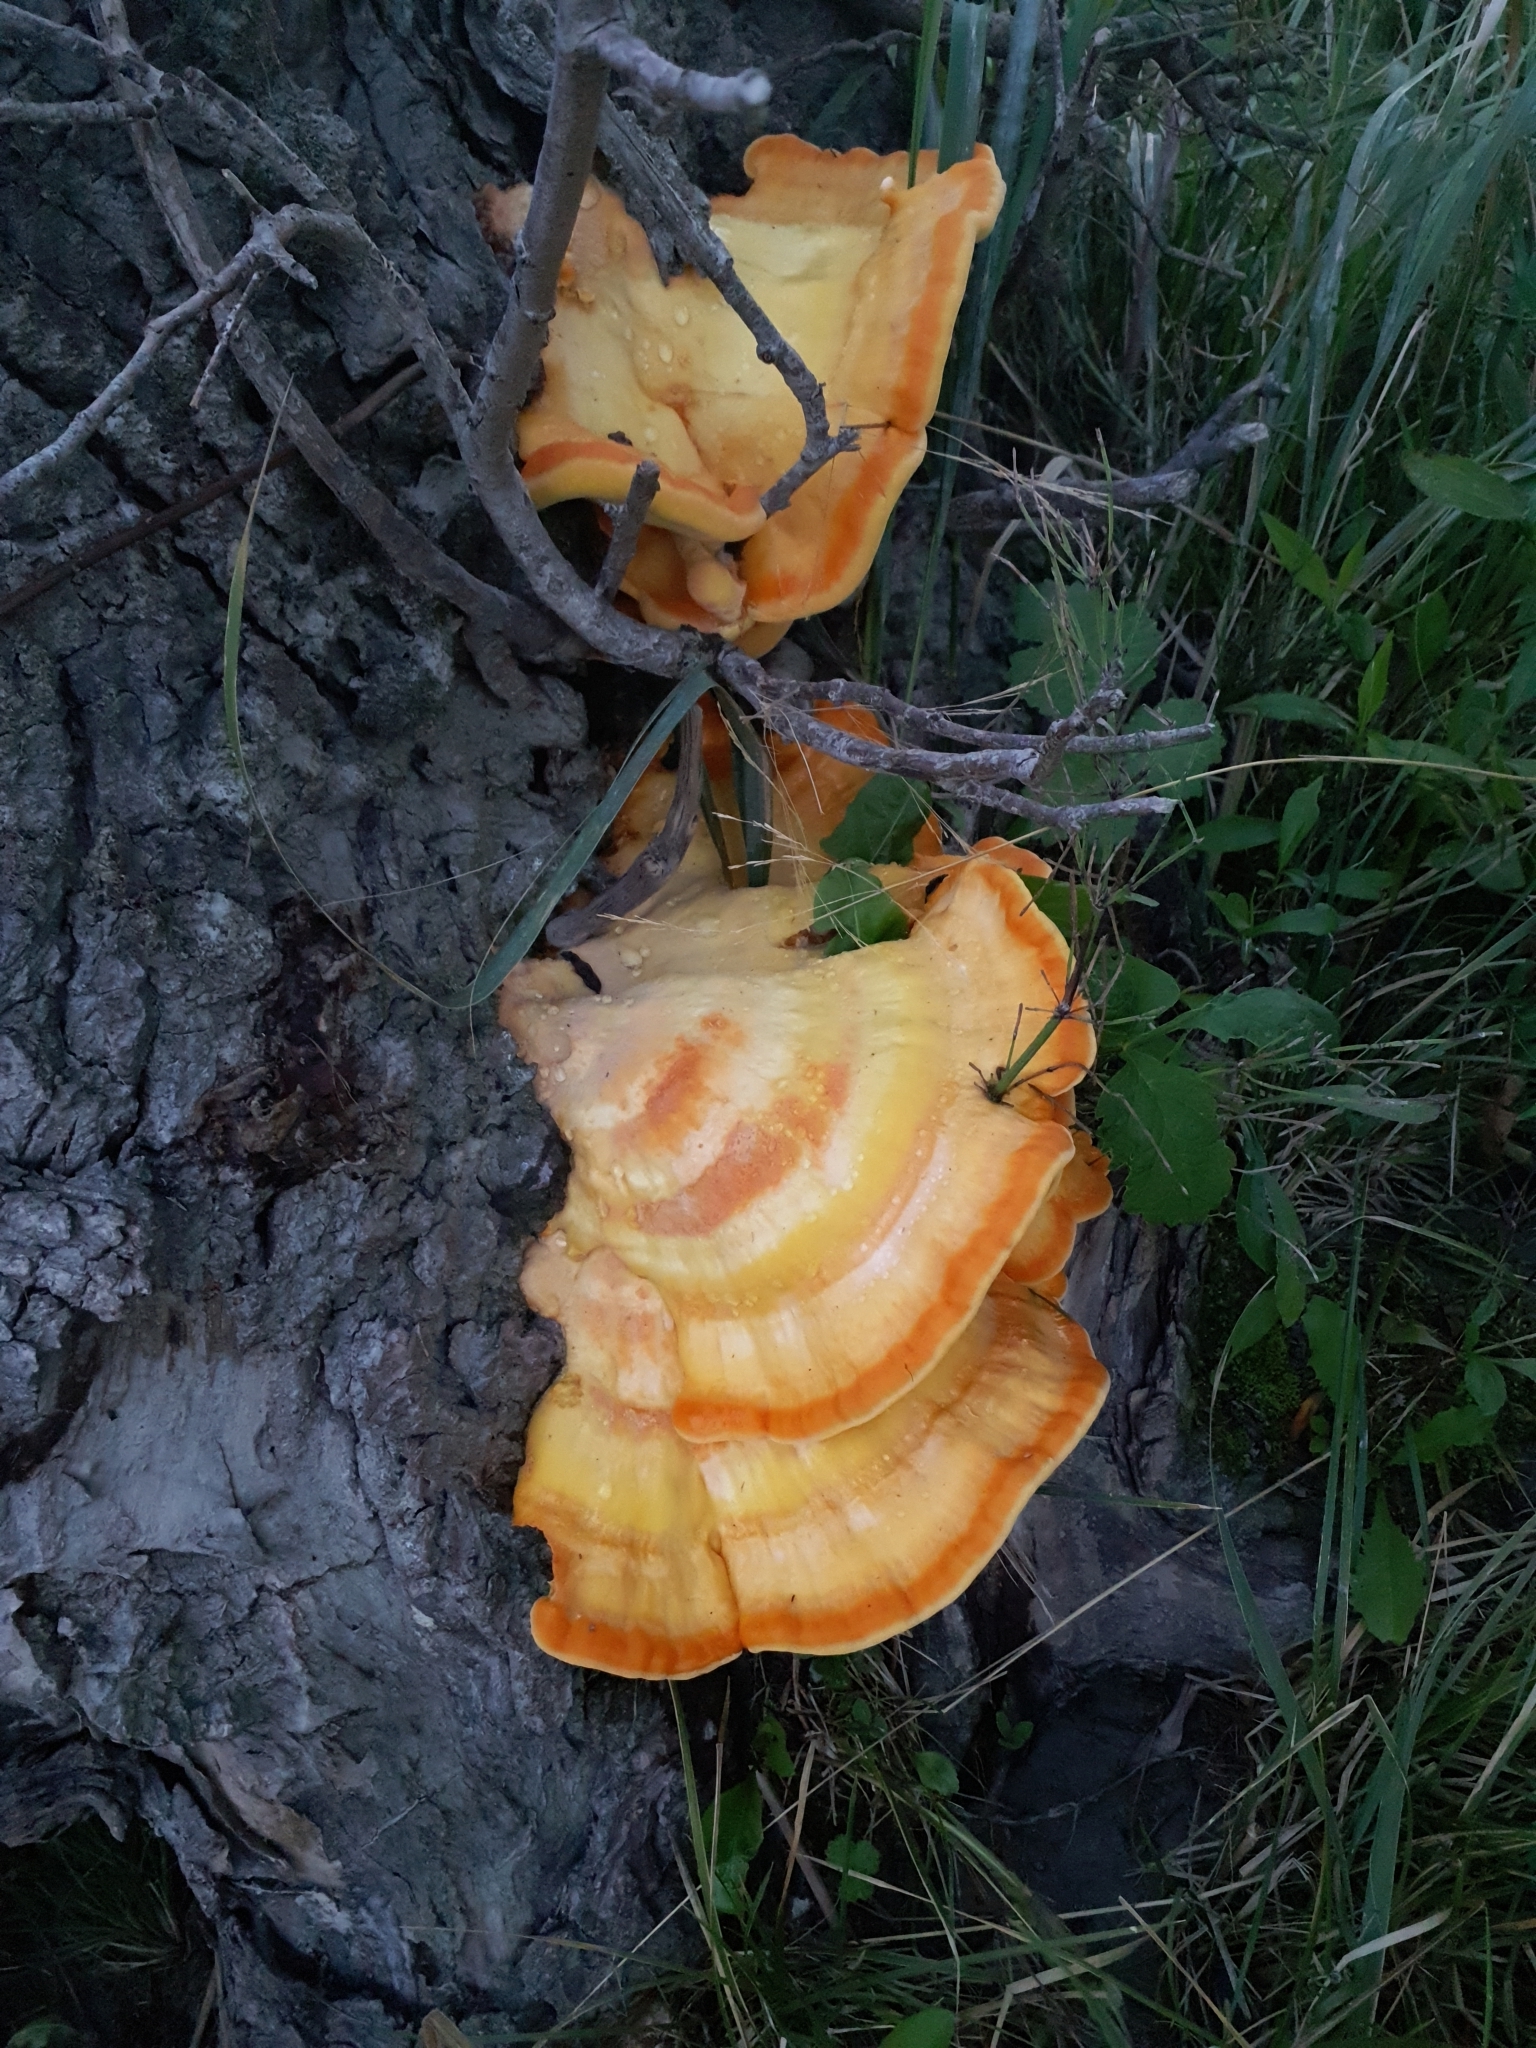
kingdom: Fungi
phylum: Basidiomycota
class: Agaricomycetes
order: Polyporales
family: Laetiporaceae
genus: Laetiporus
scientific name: Laetiporus sulphureus
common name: Chicken of the woods
